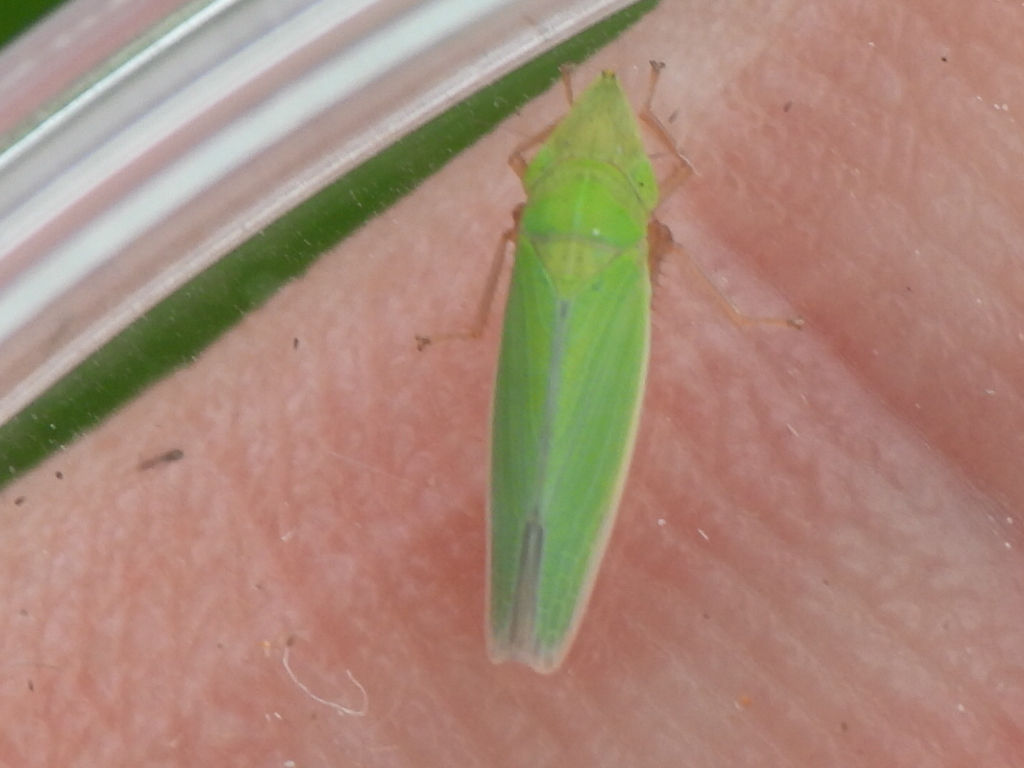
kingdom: Animalia
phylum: Arthropoda
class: Insecta
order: Hemiptera
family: Cicadellidae
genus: Draeculacephala
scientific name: Draeculacephala antica
